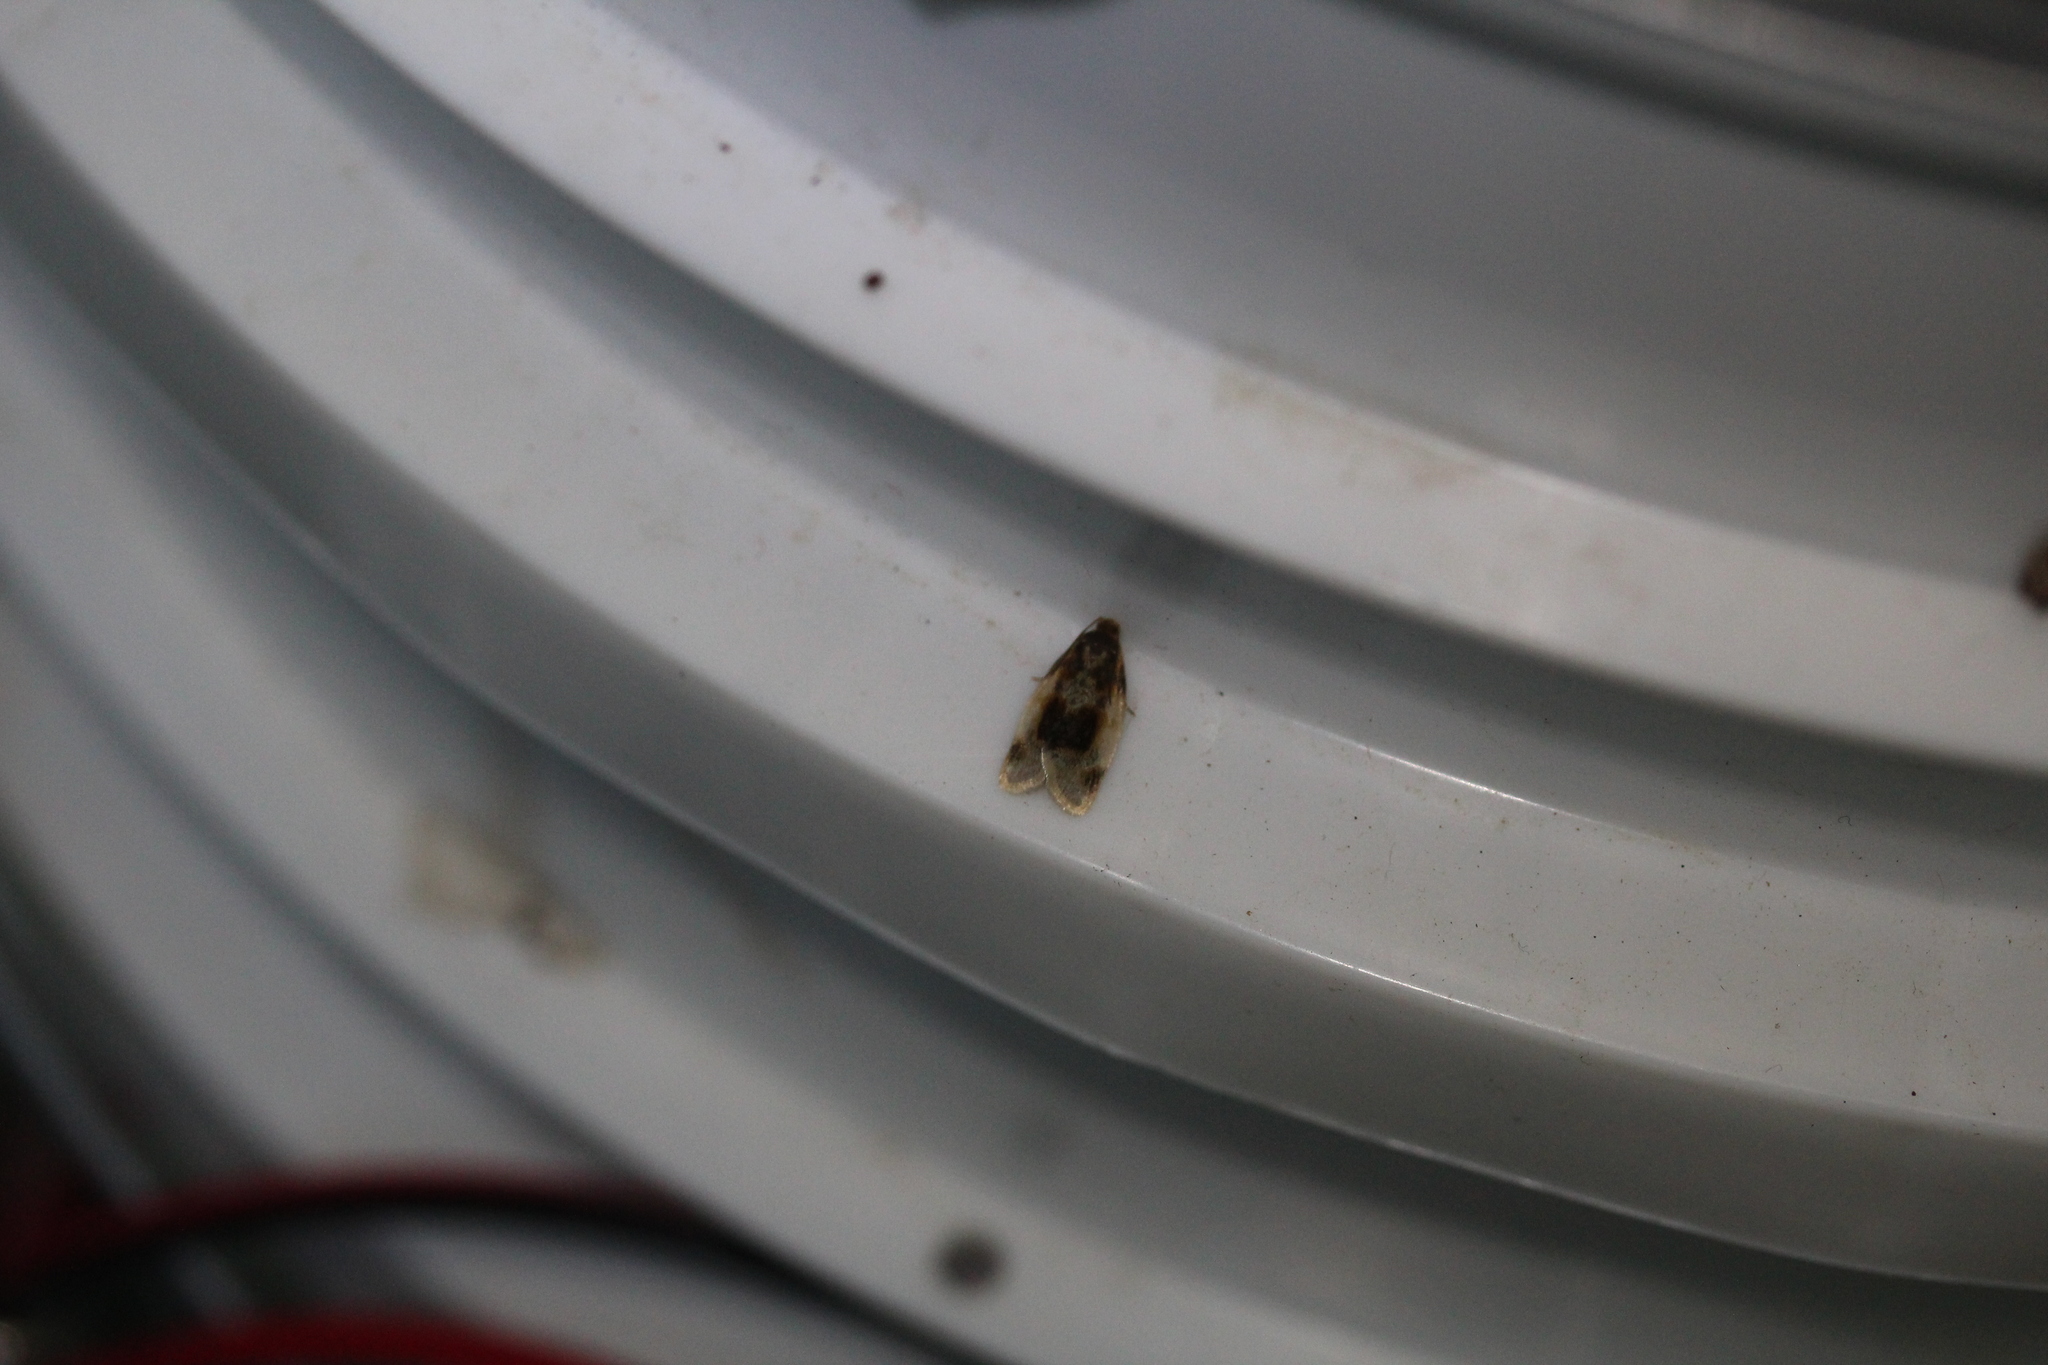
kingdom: Animalia
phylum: Arthropoda
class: Insecta
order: Lepidoptera
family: Tortricidae
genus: Clepsis
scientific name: Clepsis melaleucanus
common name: American apple tortrix
